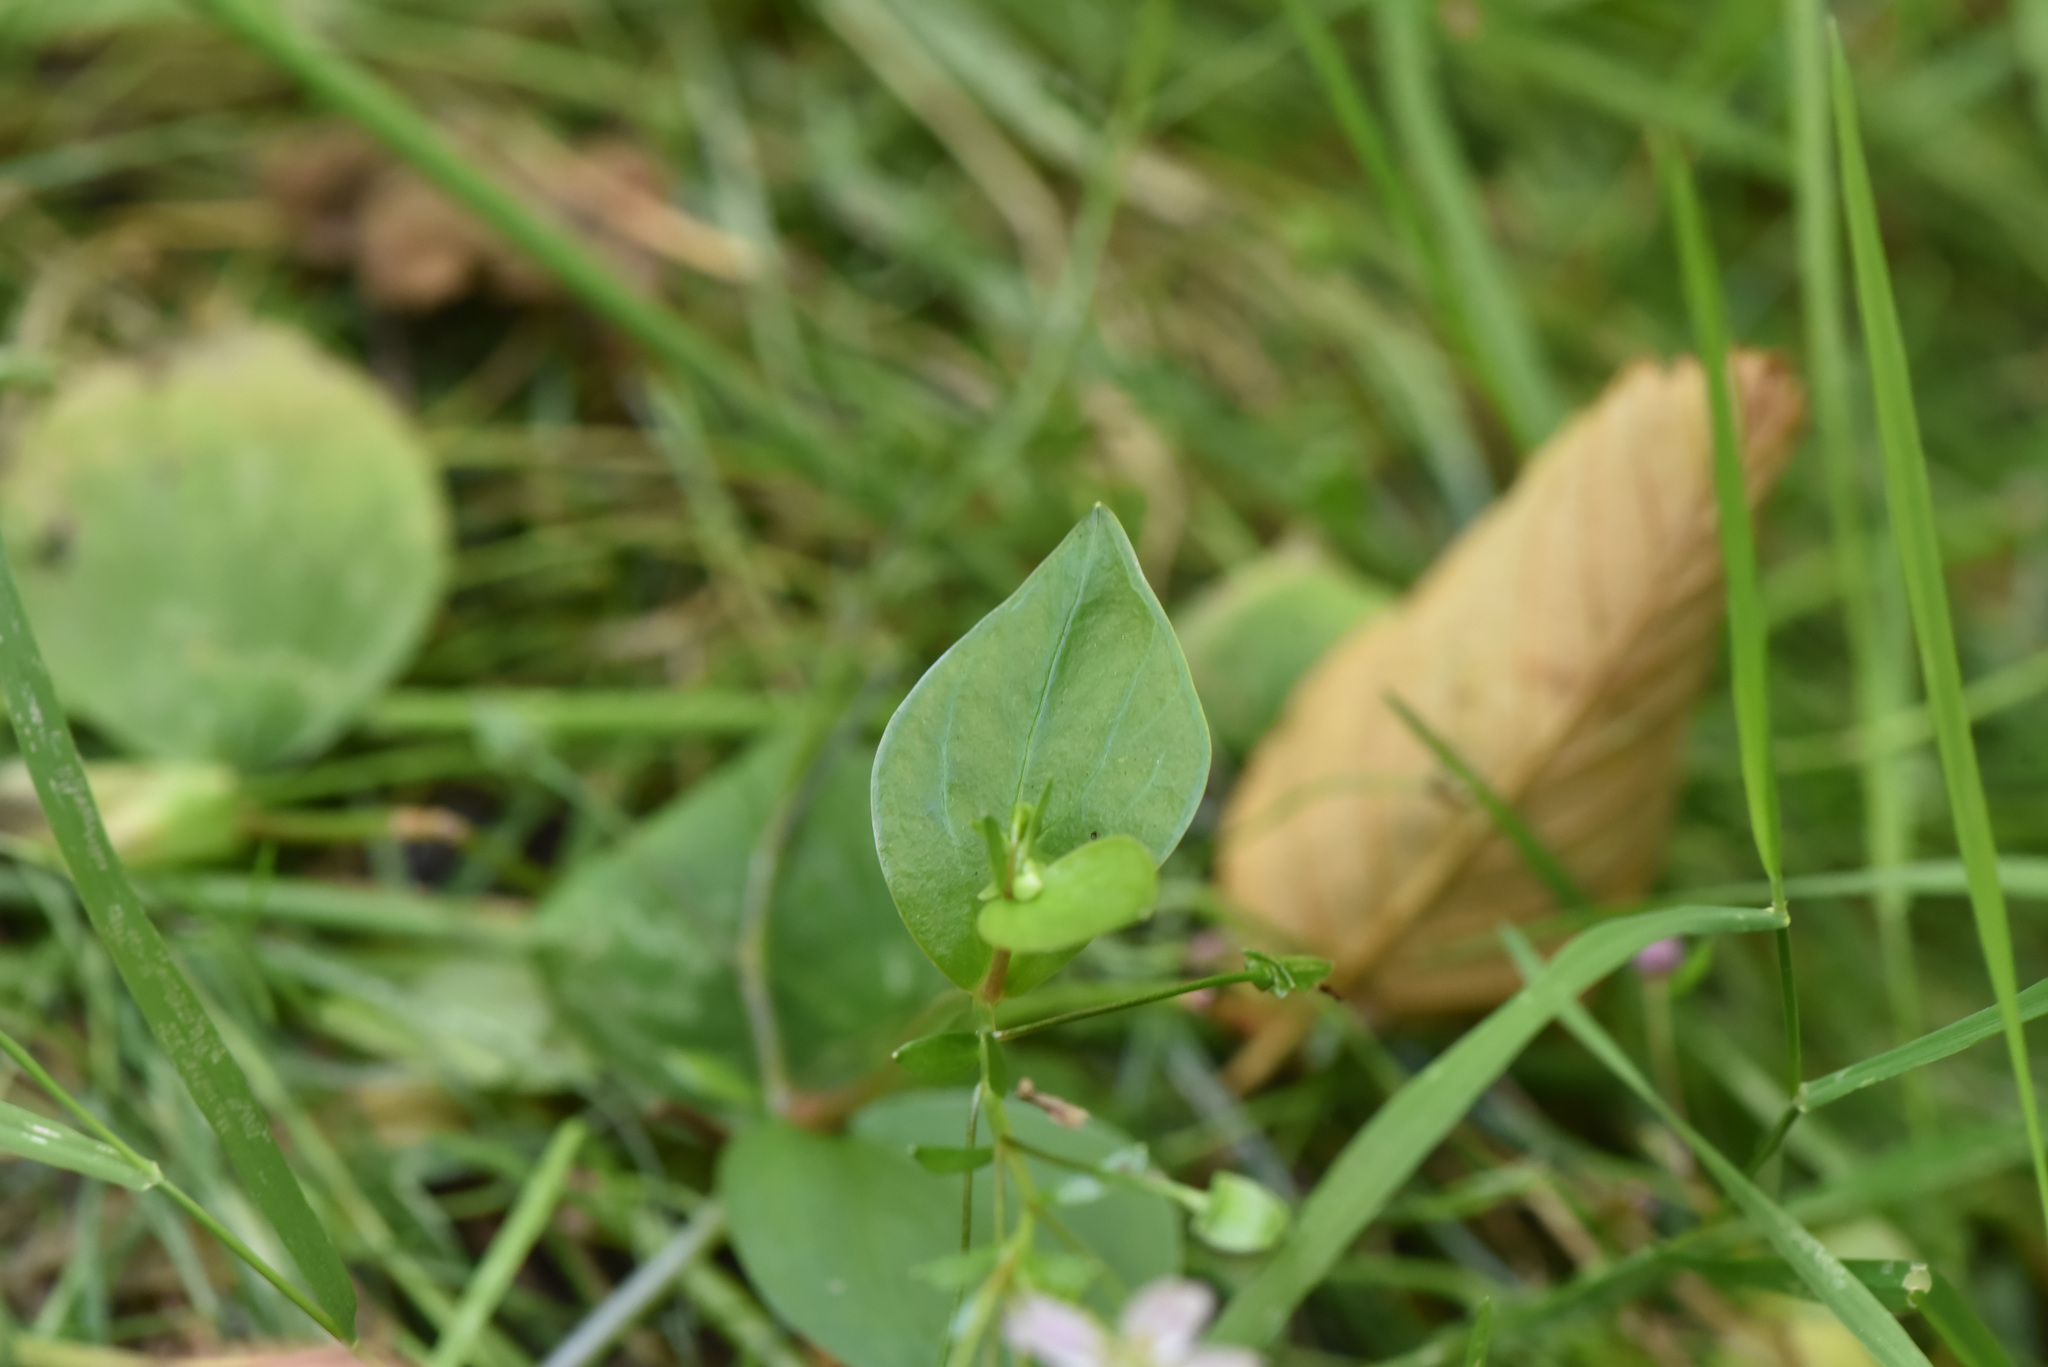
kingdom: Plantae
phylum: Tracheophyta
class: Magnoliopsida
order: Caryophyllales
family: Montiaceae
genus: Claytonia
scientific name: Claytonia sibirica
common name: Pink purslane
